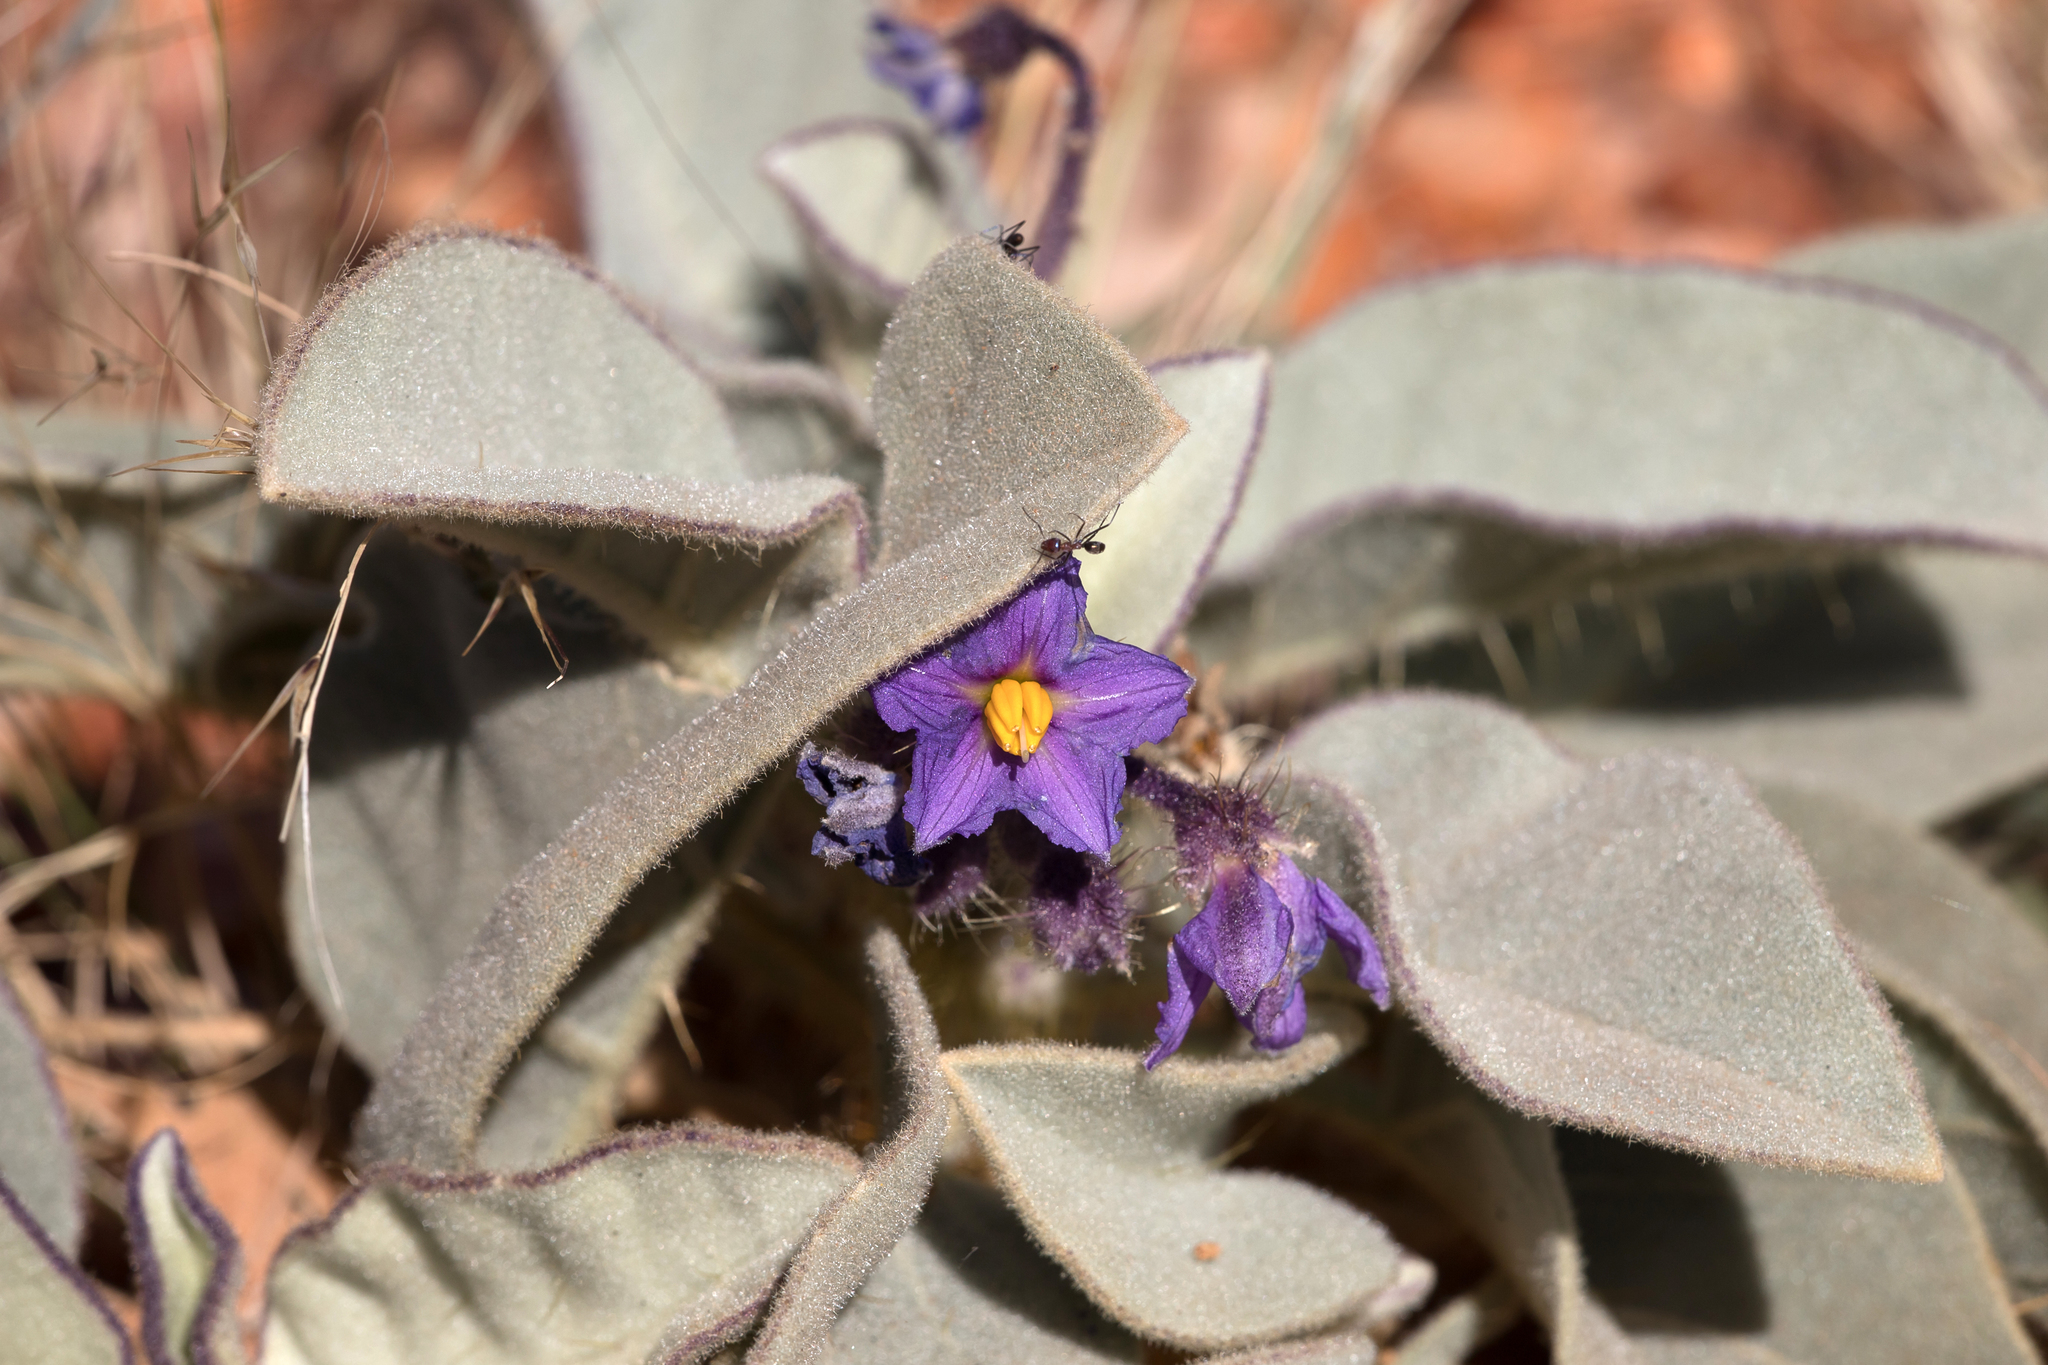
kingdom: Plantae
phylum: Tracheophyta
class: Magnoliopsida
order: Solanales
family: Solanaceae
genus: Solanum
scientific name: Solanum quadriloculatum
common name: Wild tomato
